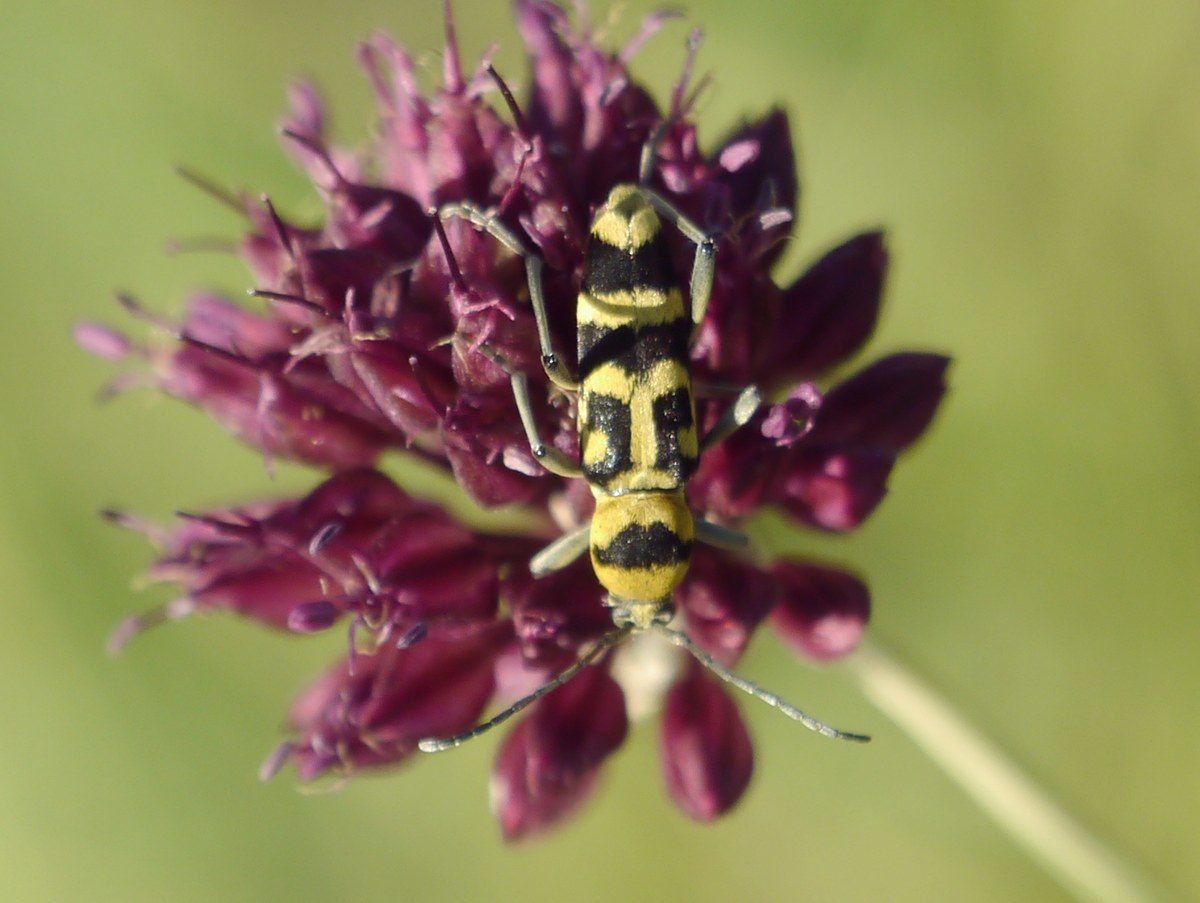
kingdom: Animalia
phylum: Arthropoda
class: Insecta
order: Coleoptera
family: Cerambycidae
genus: Chlorophorus
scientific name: Chlorophorus varius
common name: Grape wood borer
